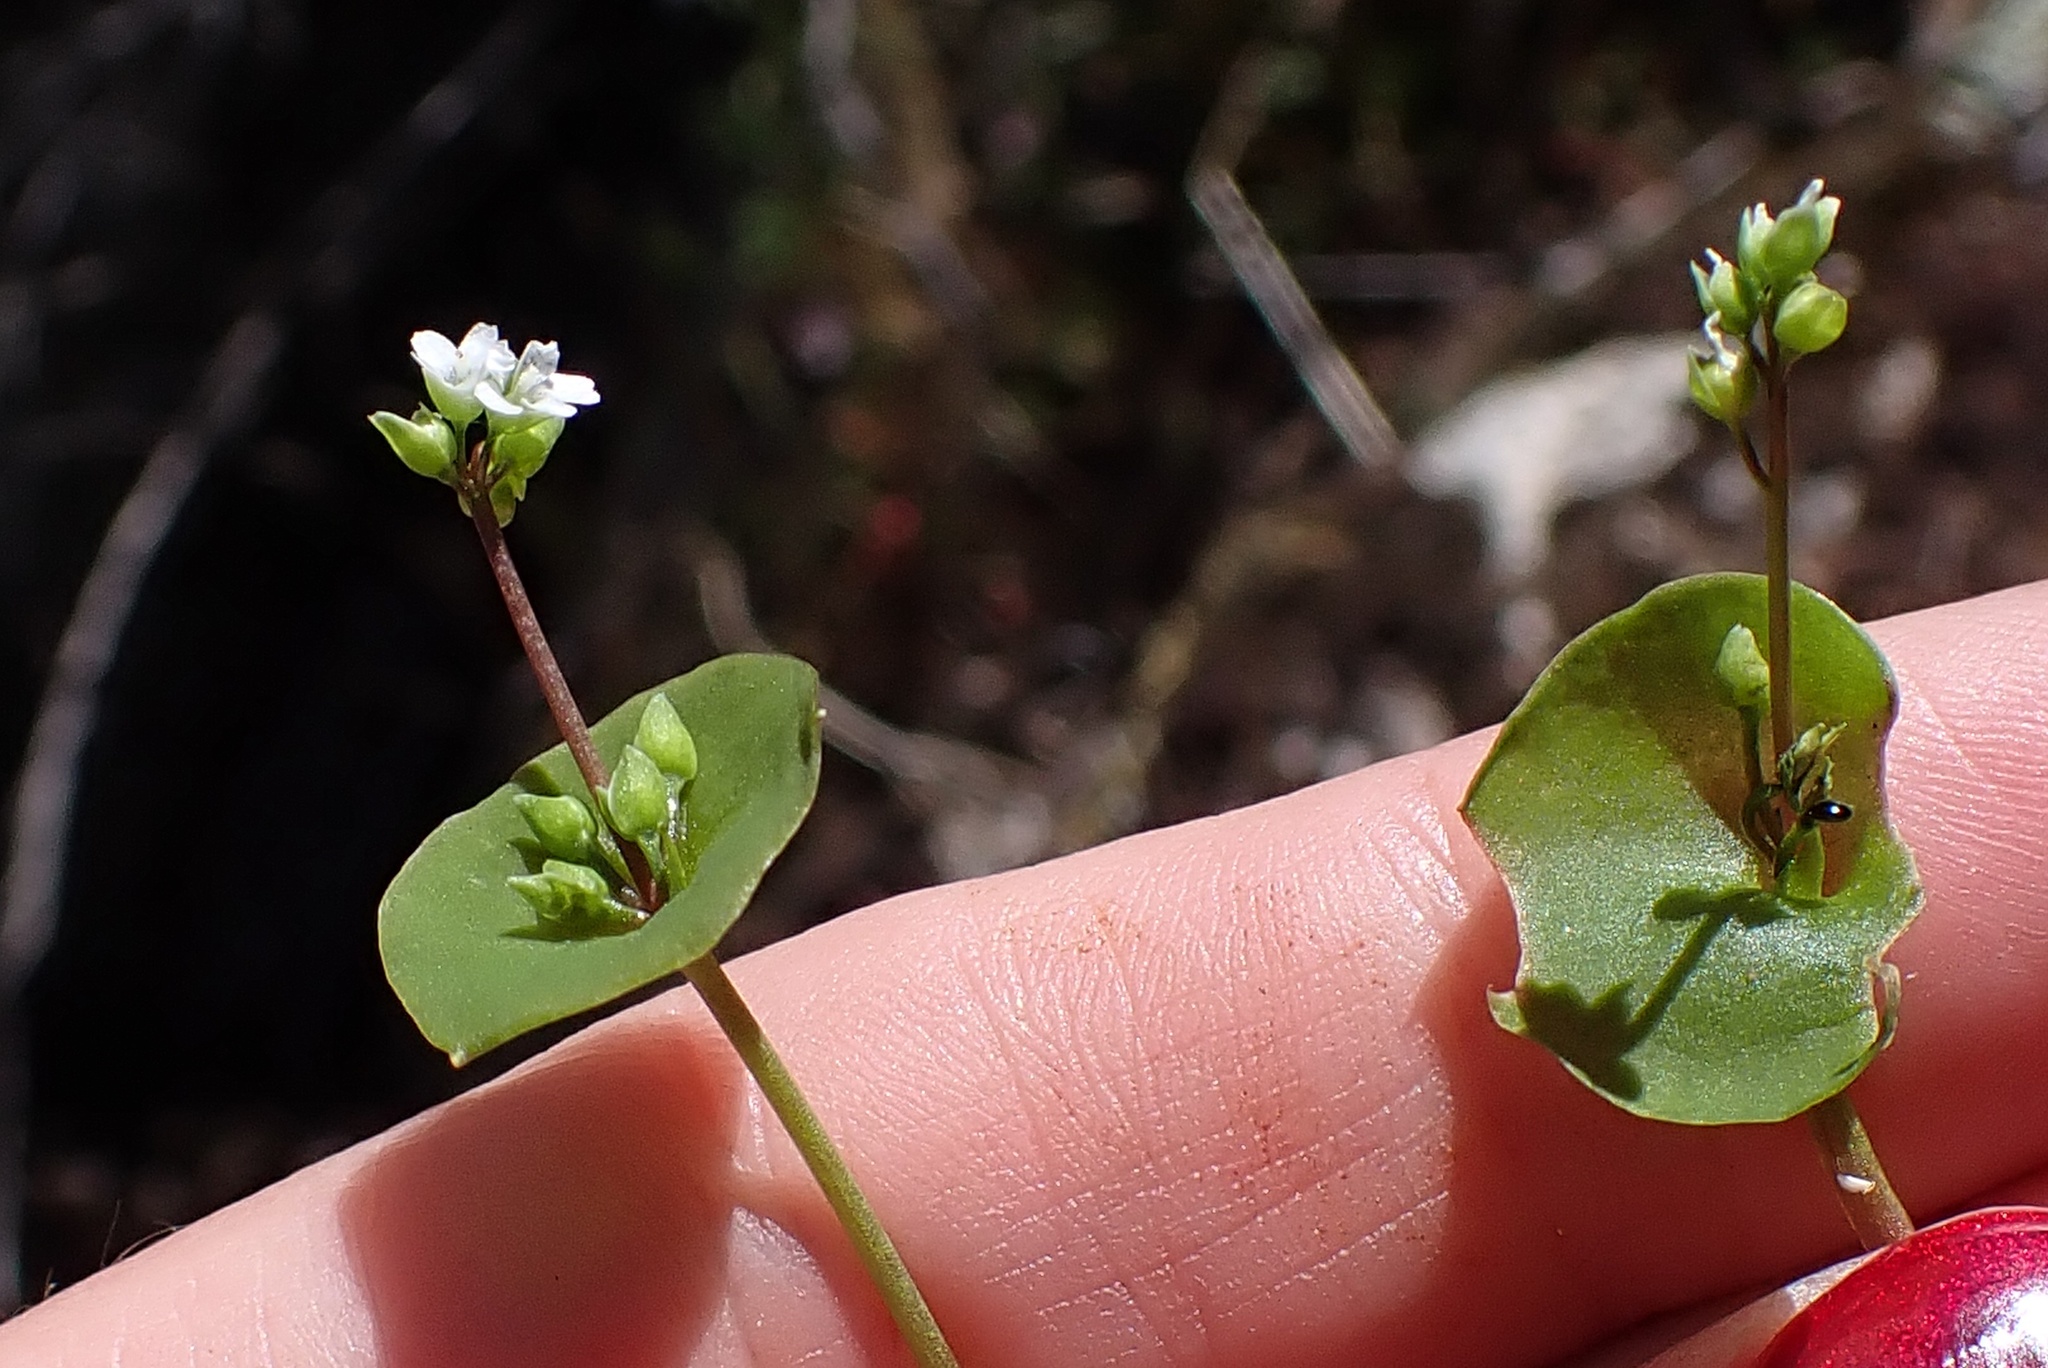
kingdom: Plantae
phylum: Tracheophyta
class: Magnoliopsida
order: Caryophyllales
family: Montiaceae
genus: Claytonia
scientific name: Claytonia perfoliata
